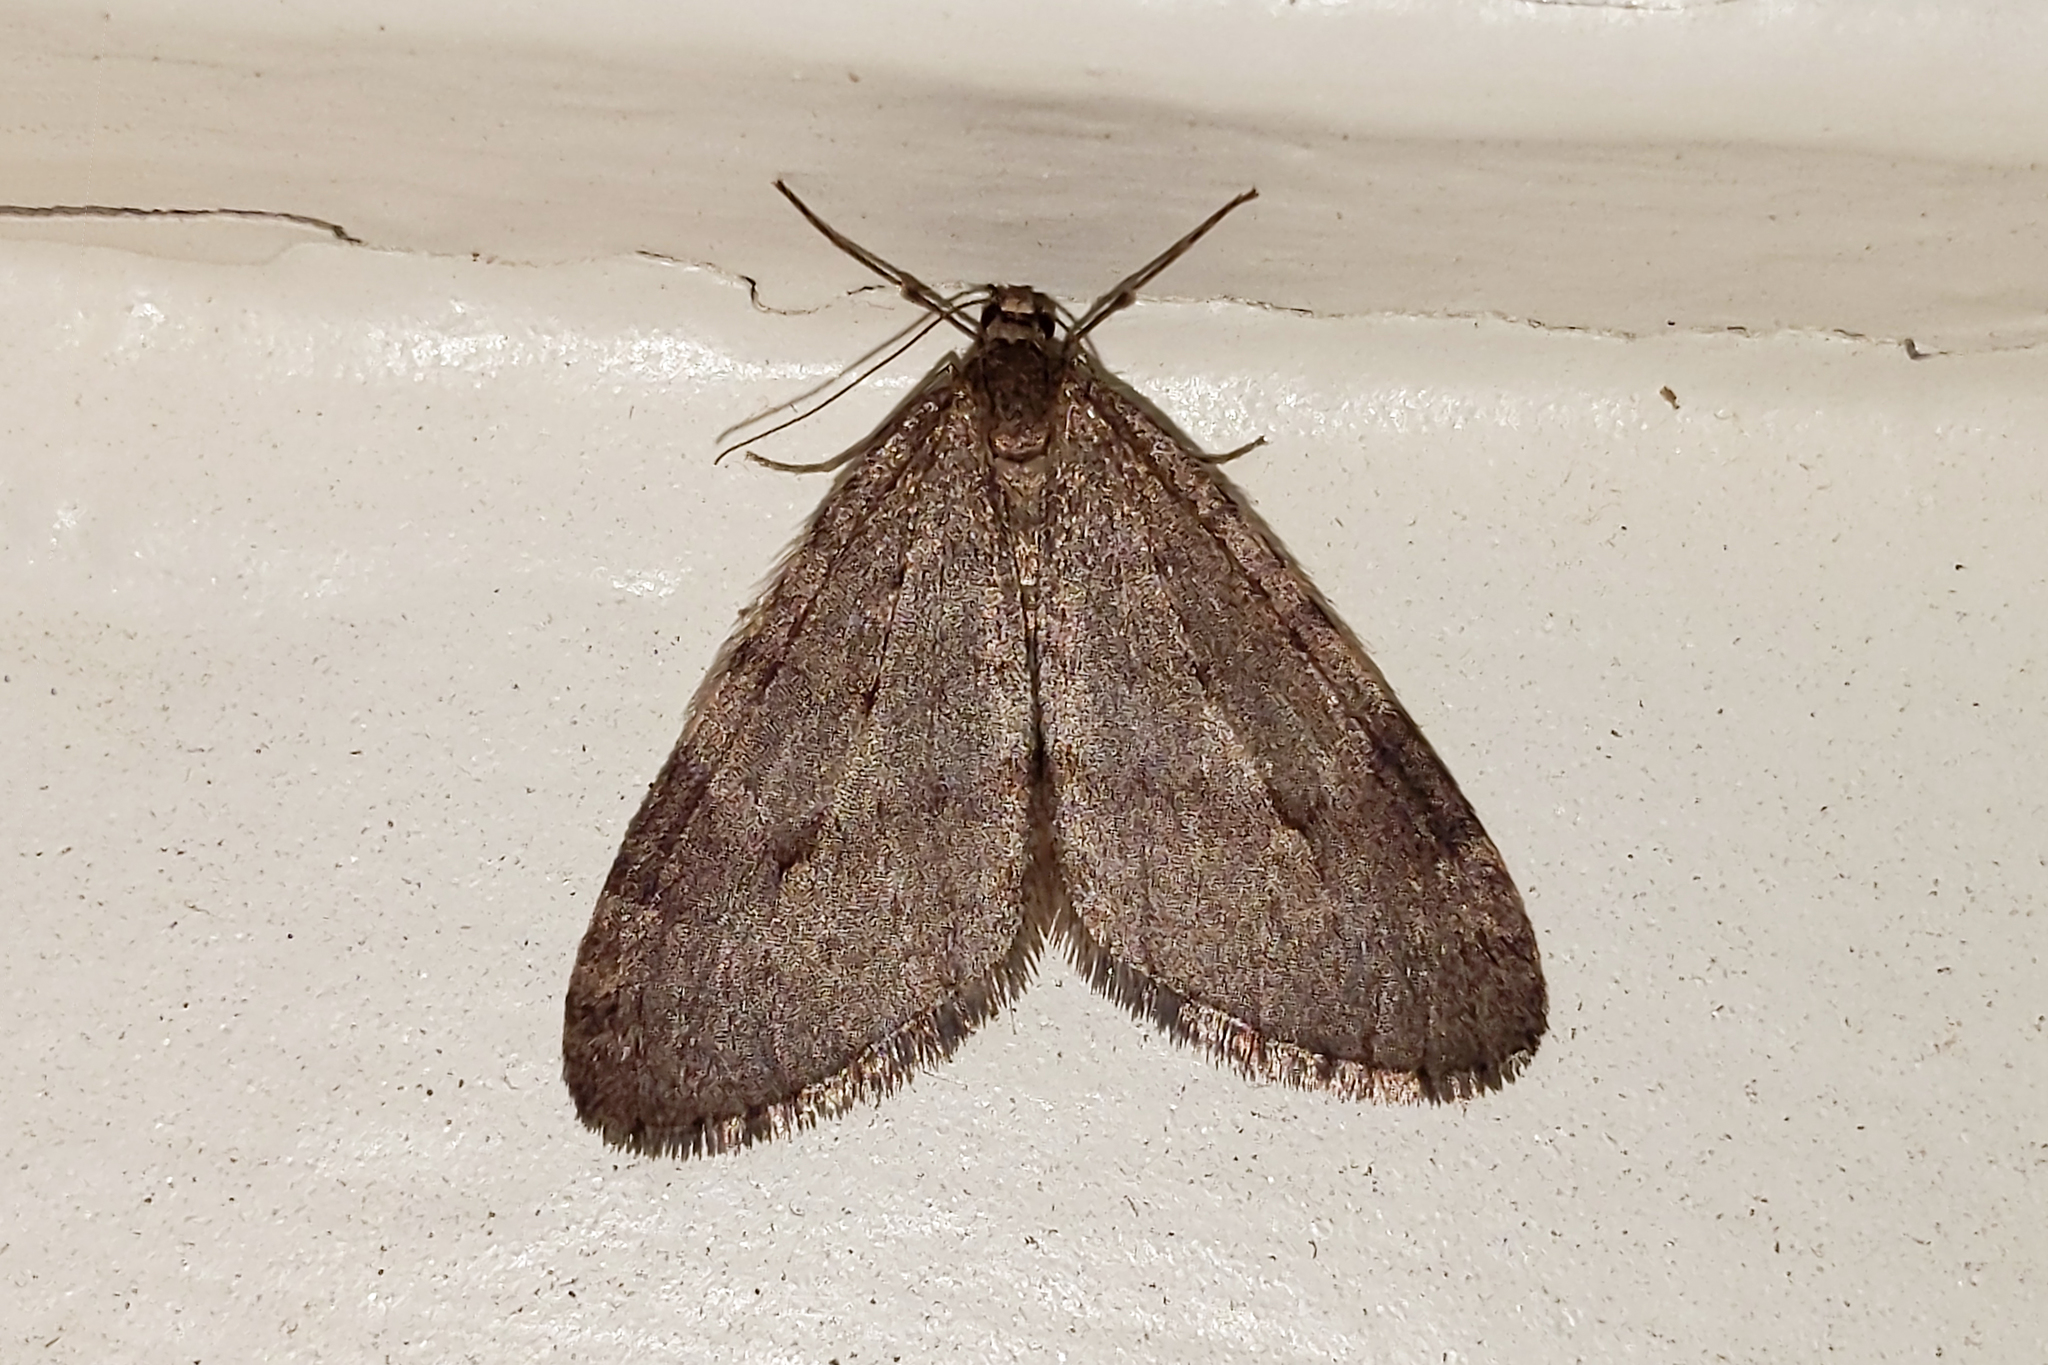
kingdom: Animalia
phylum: Arthropoda
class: Insecta
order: Lepidoptera
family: Geometridae
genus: Operophtera
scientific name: Operophtera bruceata
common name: Bruce spanworm
